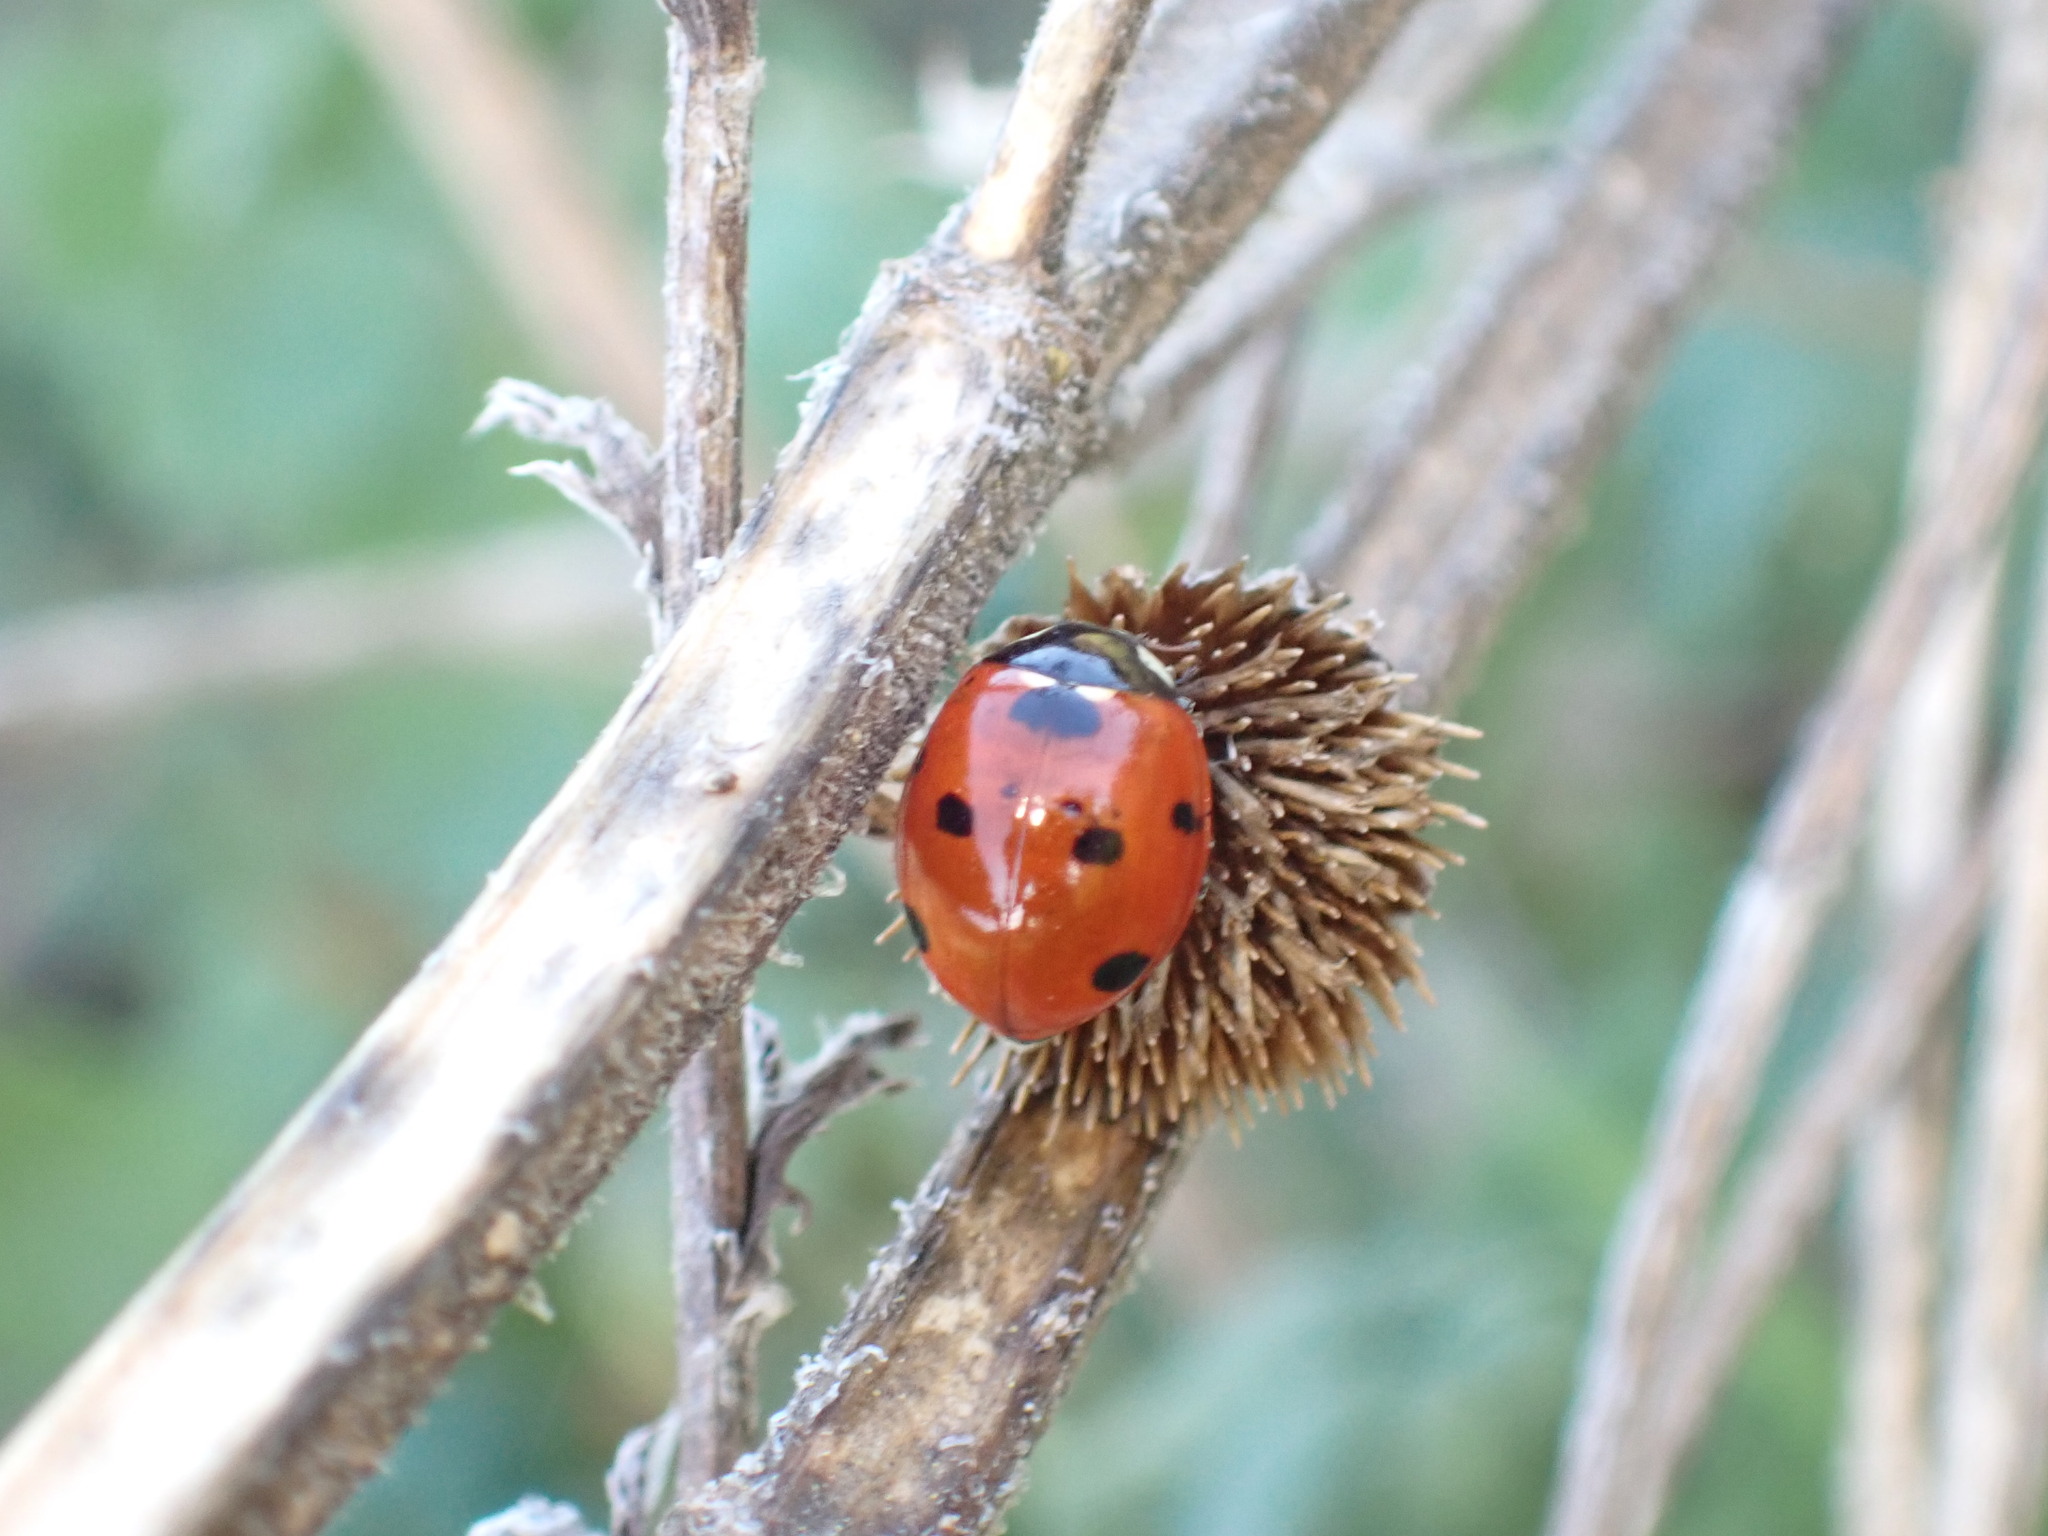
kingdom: Animalia
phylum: Arthropoda
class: Insecta
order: Coleoptera
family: Coccinellidae
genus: Coccinella
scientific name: Coccinella septempunctata
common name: Sevenspotted lady beetle
